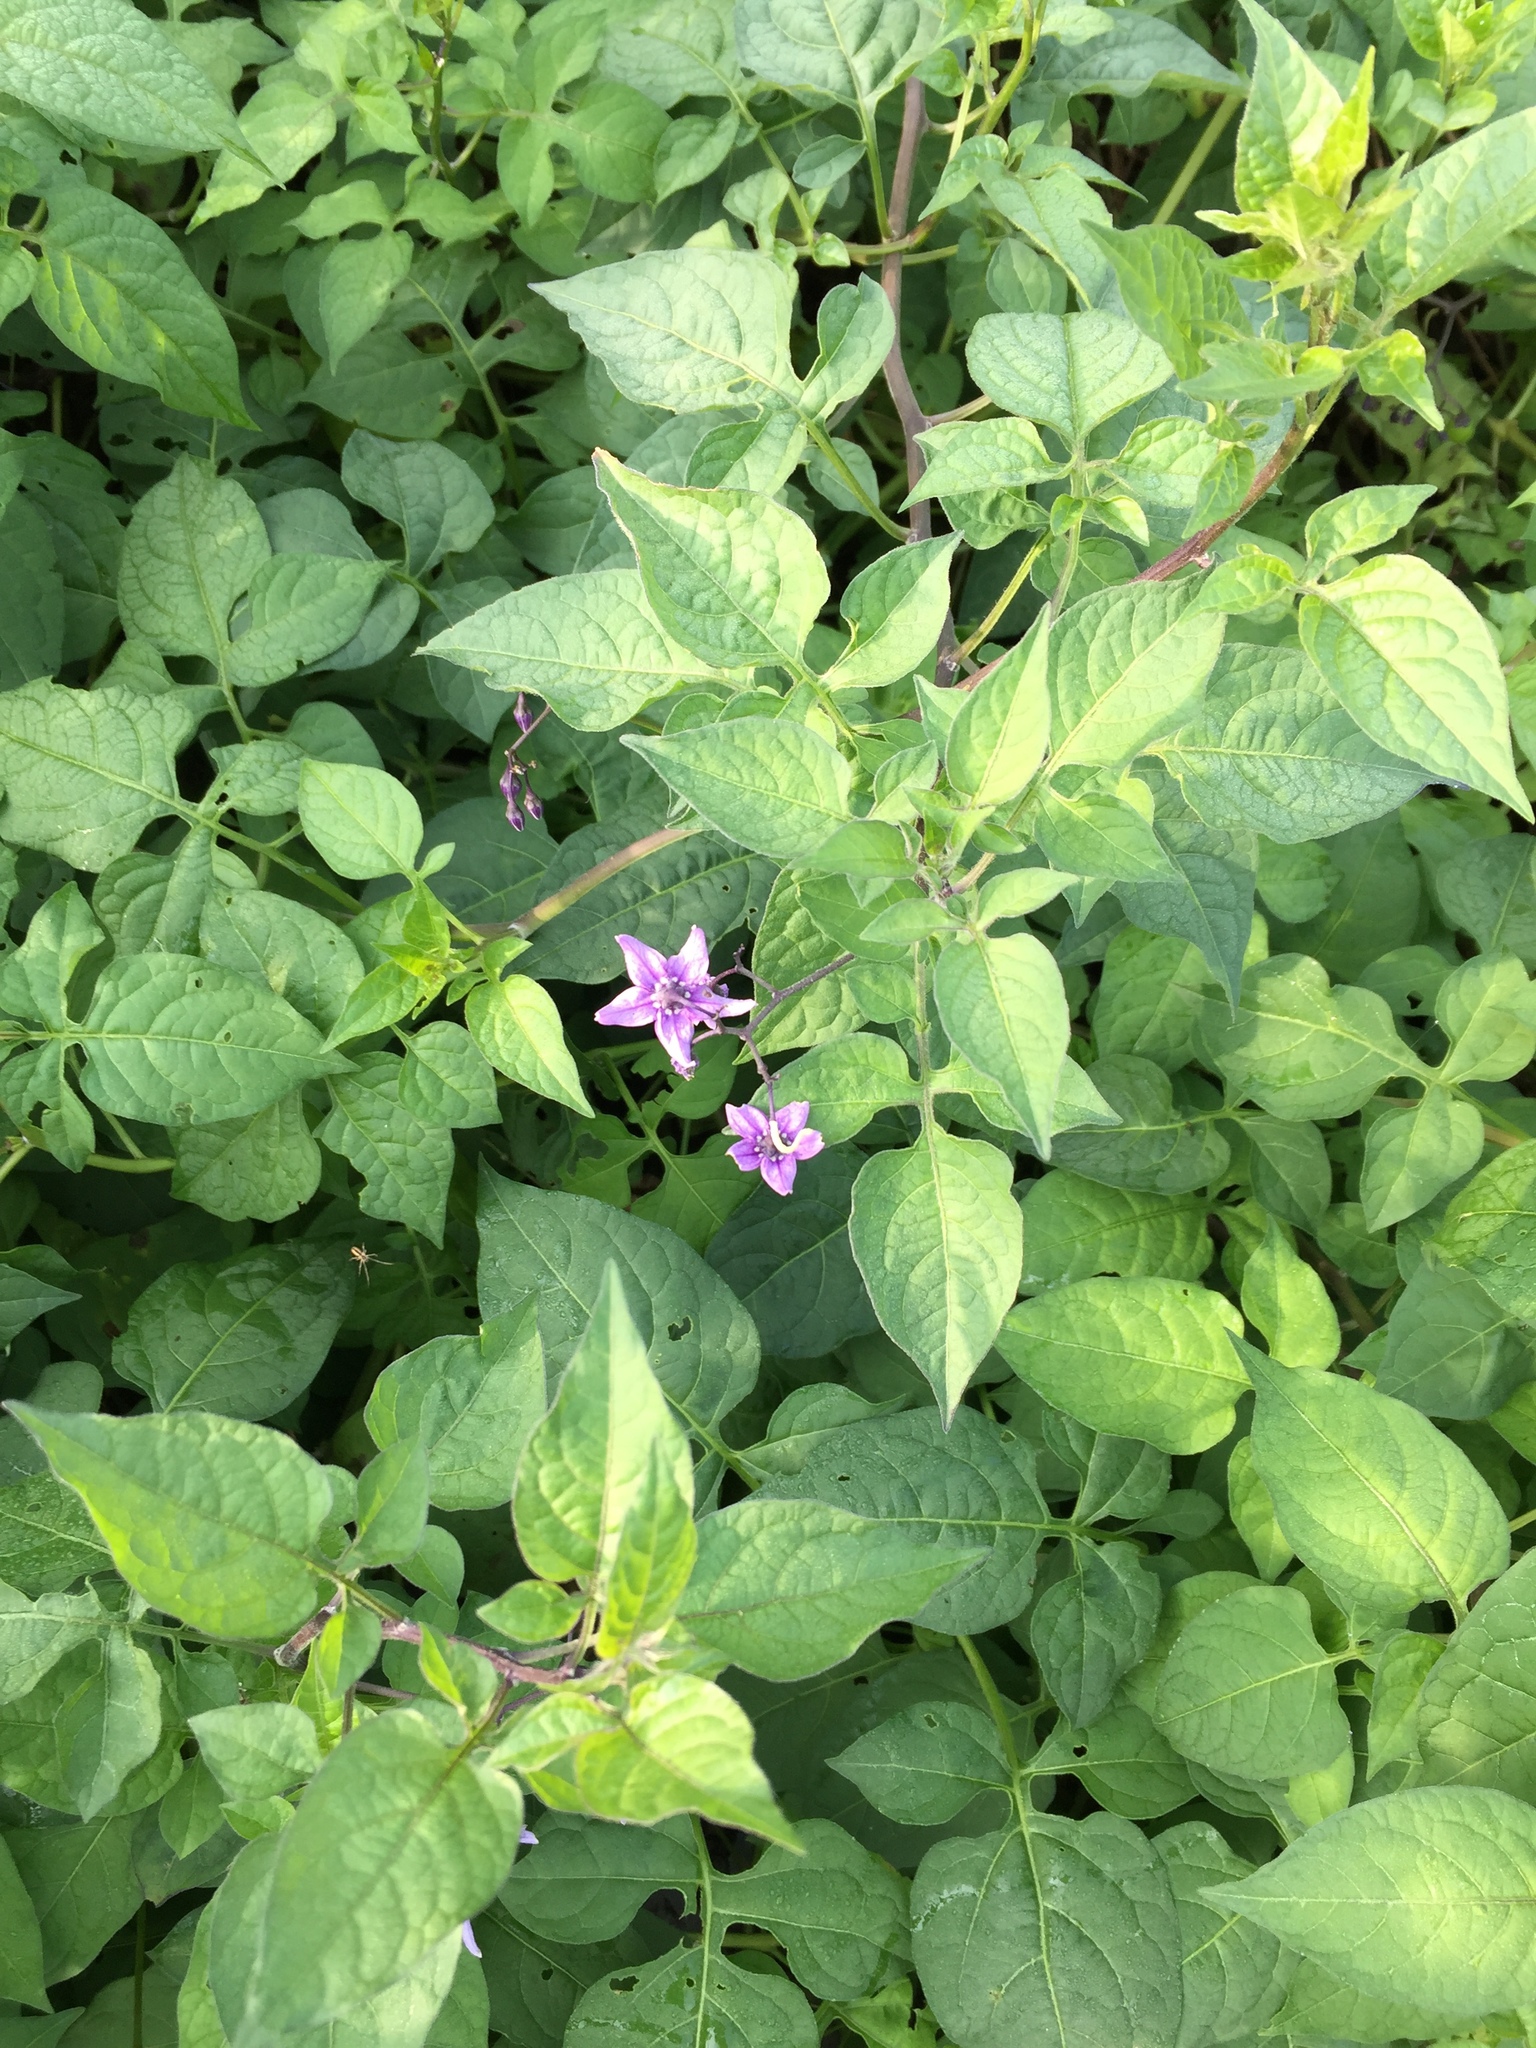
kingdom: Plantae
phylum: Tracheophyta
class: Magnoliopsida
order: Solanales
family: Solanaceae
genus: Solanum
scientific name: Solanum dulcamara
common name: Climbing nightshade
